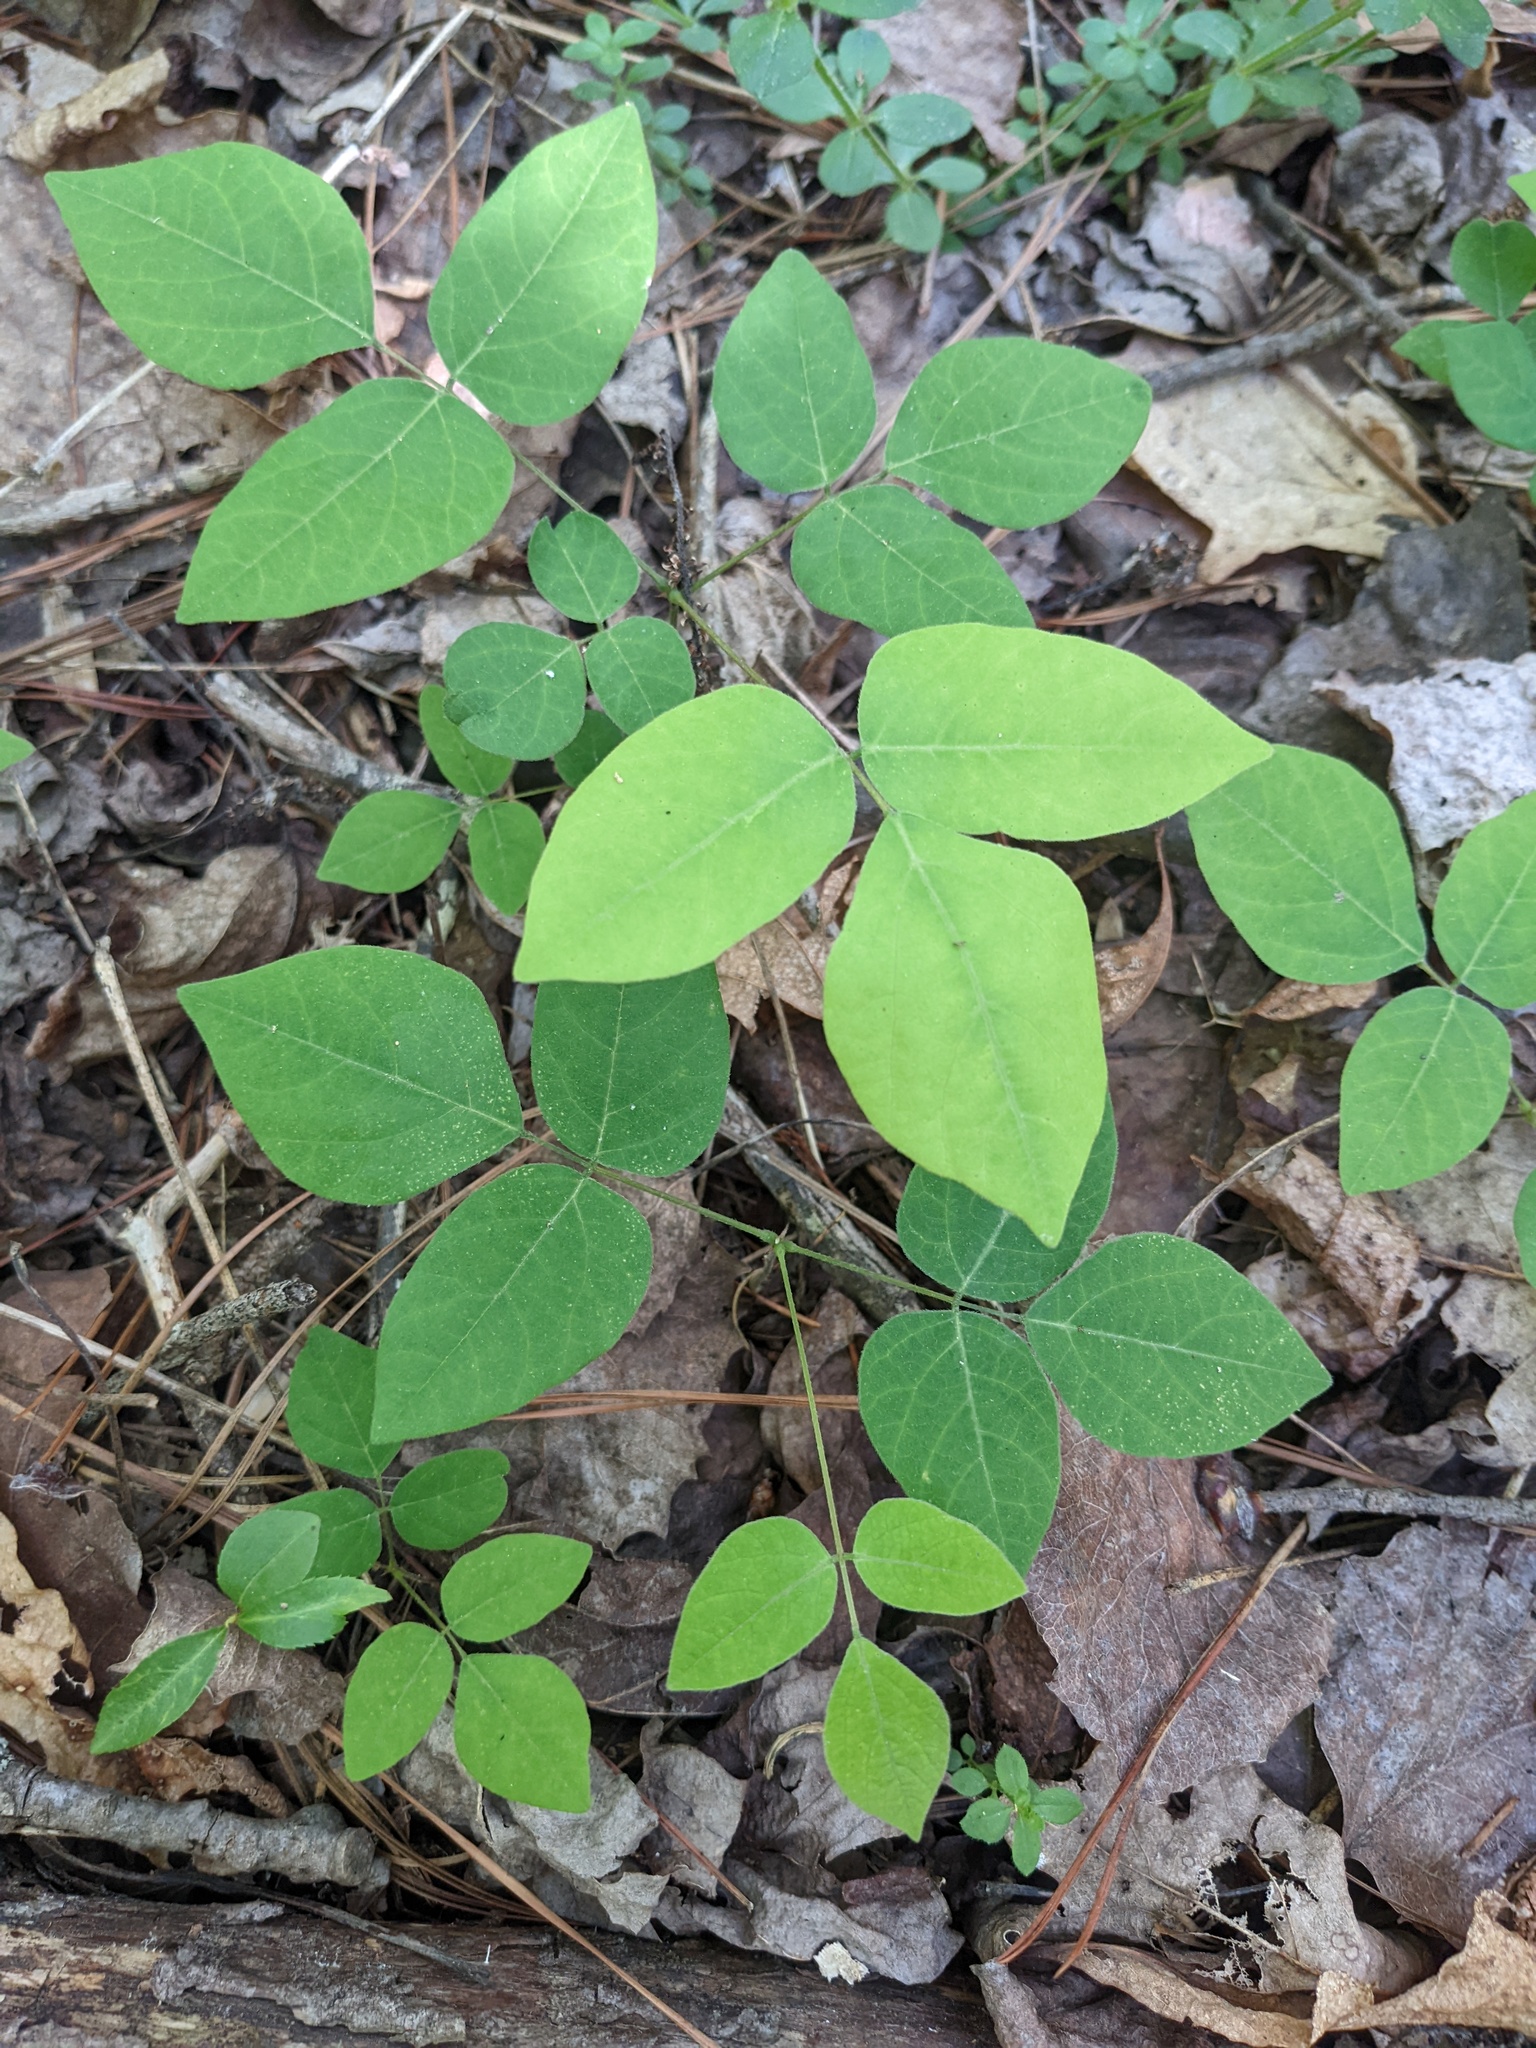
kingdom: Plantae
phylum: Tracheophyta
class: Magnoliopsida
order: Fabales
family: Fabaceae
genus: Hylodesmum
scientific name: Hylodesmum nudiflorum
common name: Bare-stemmed tick-trefoil
